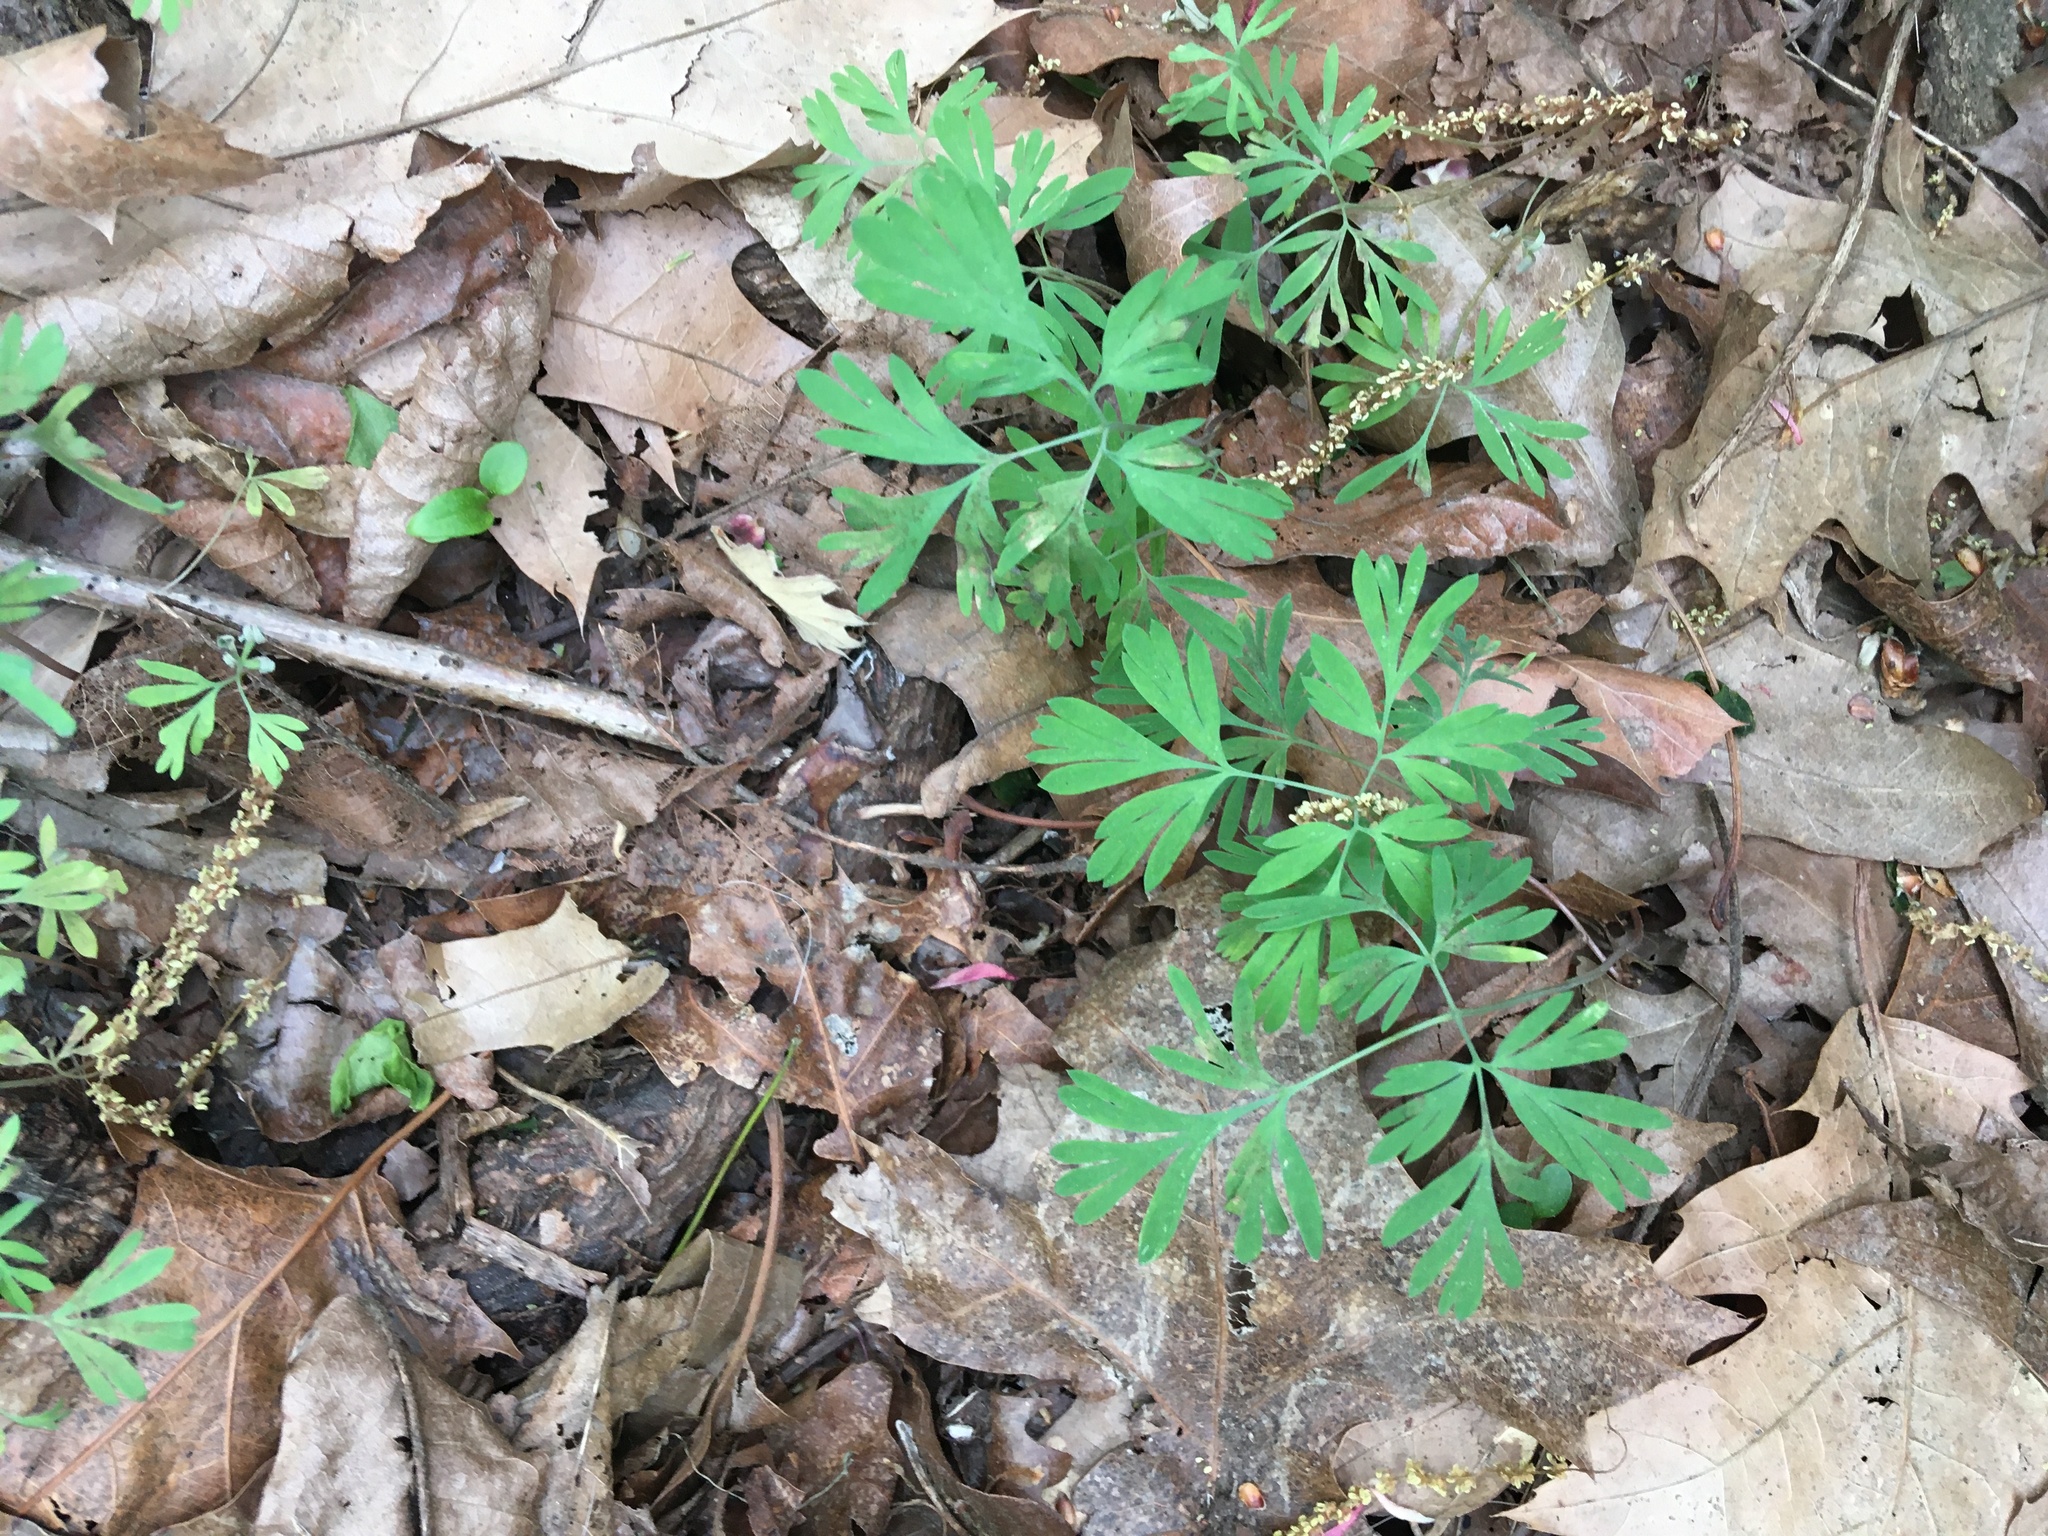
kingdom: Plantae
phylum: Tracheophyta
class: Magnoliopsida
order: Ranunculales
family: Papaveraceae
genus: Dicentra
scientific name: Dicentra cucullaria
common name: Dutchman's breeches
